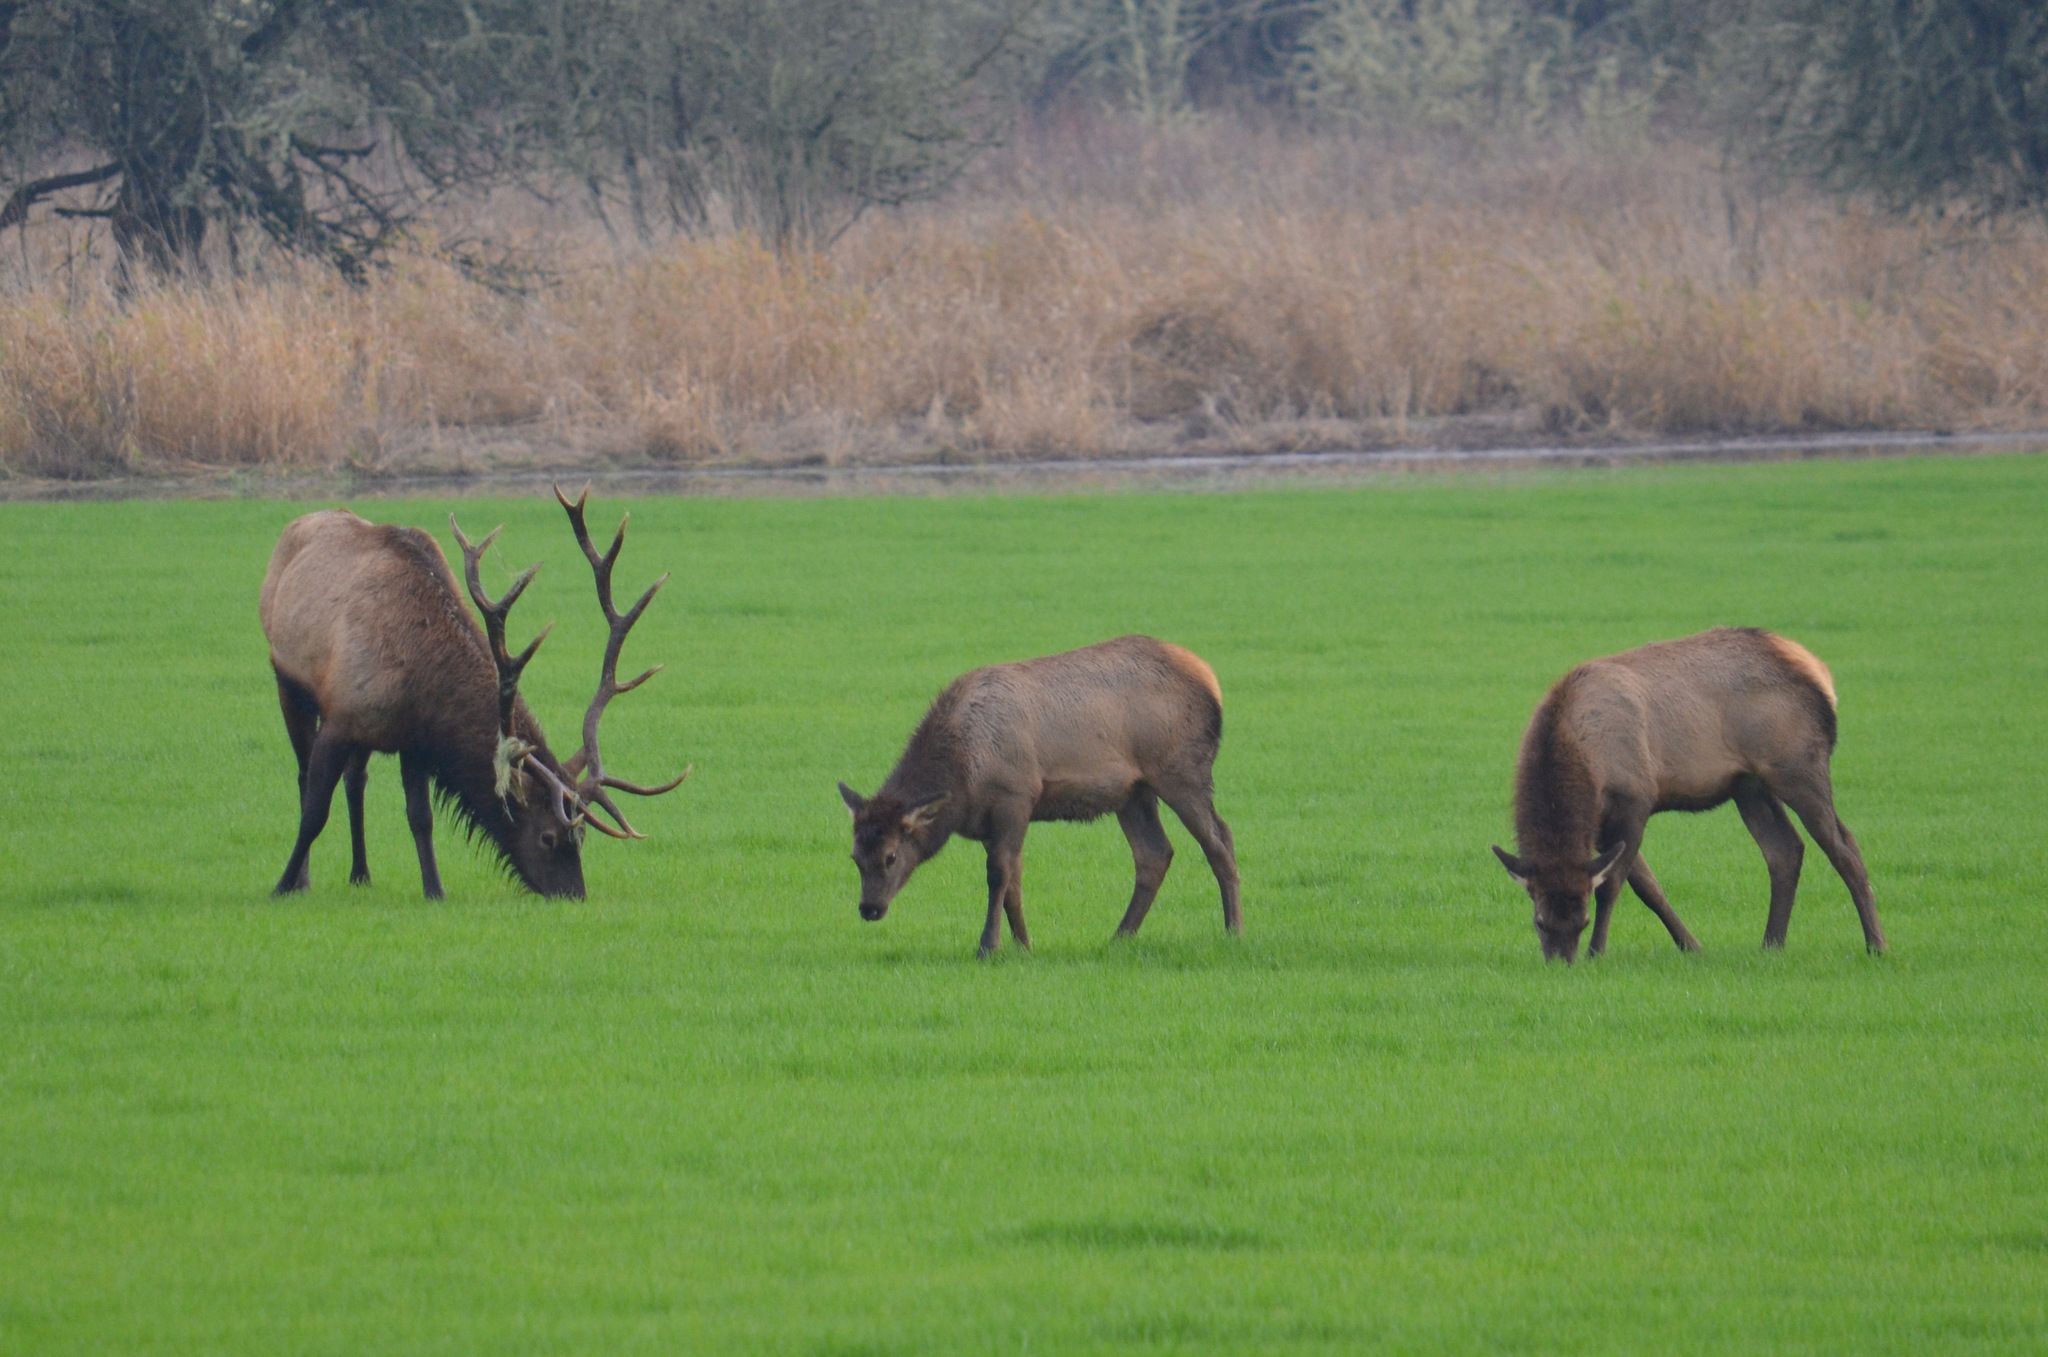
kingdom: Animalia
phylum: Chordata
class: Mammalia
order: Artiodactyla
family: Cervidae
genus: Cervus
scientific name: Cervus elaphus
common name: Red deer
